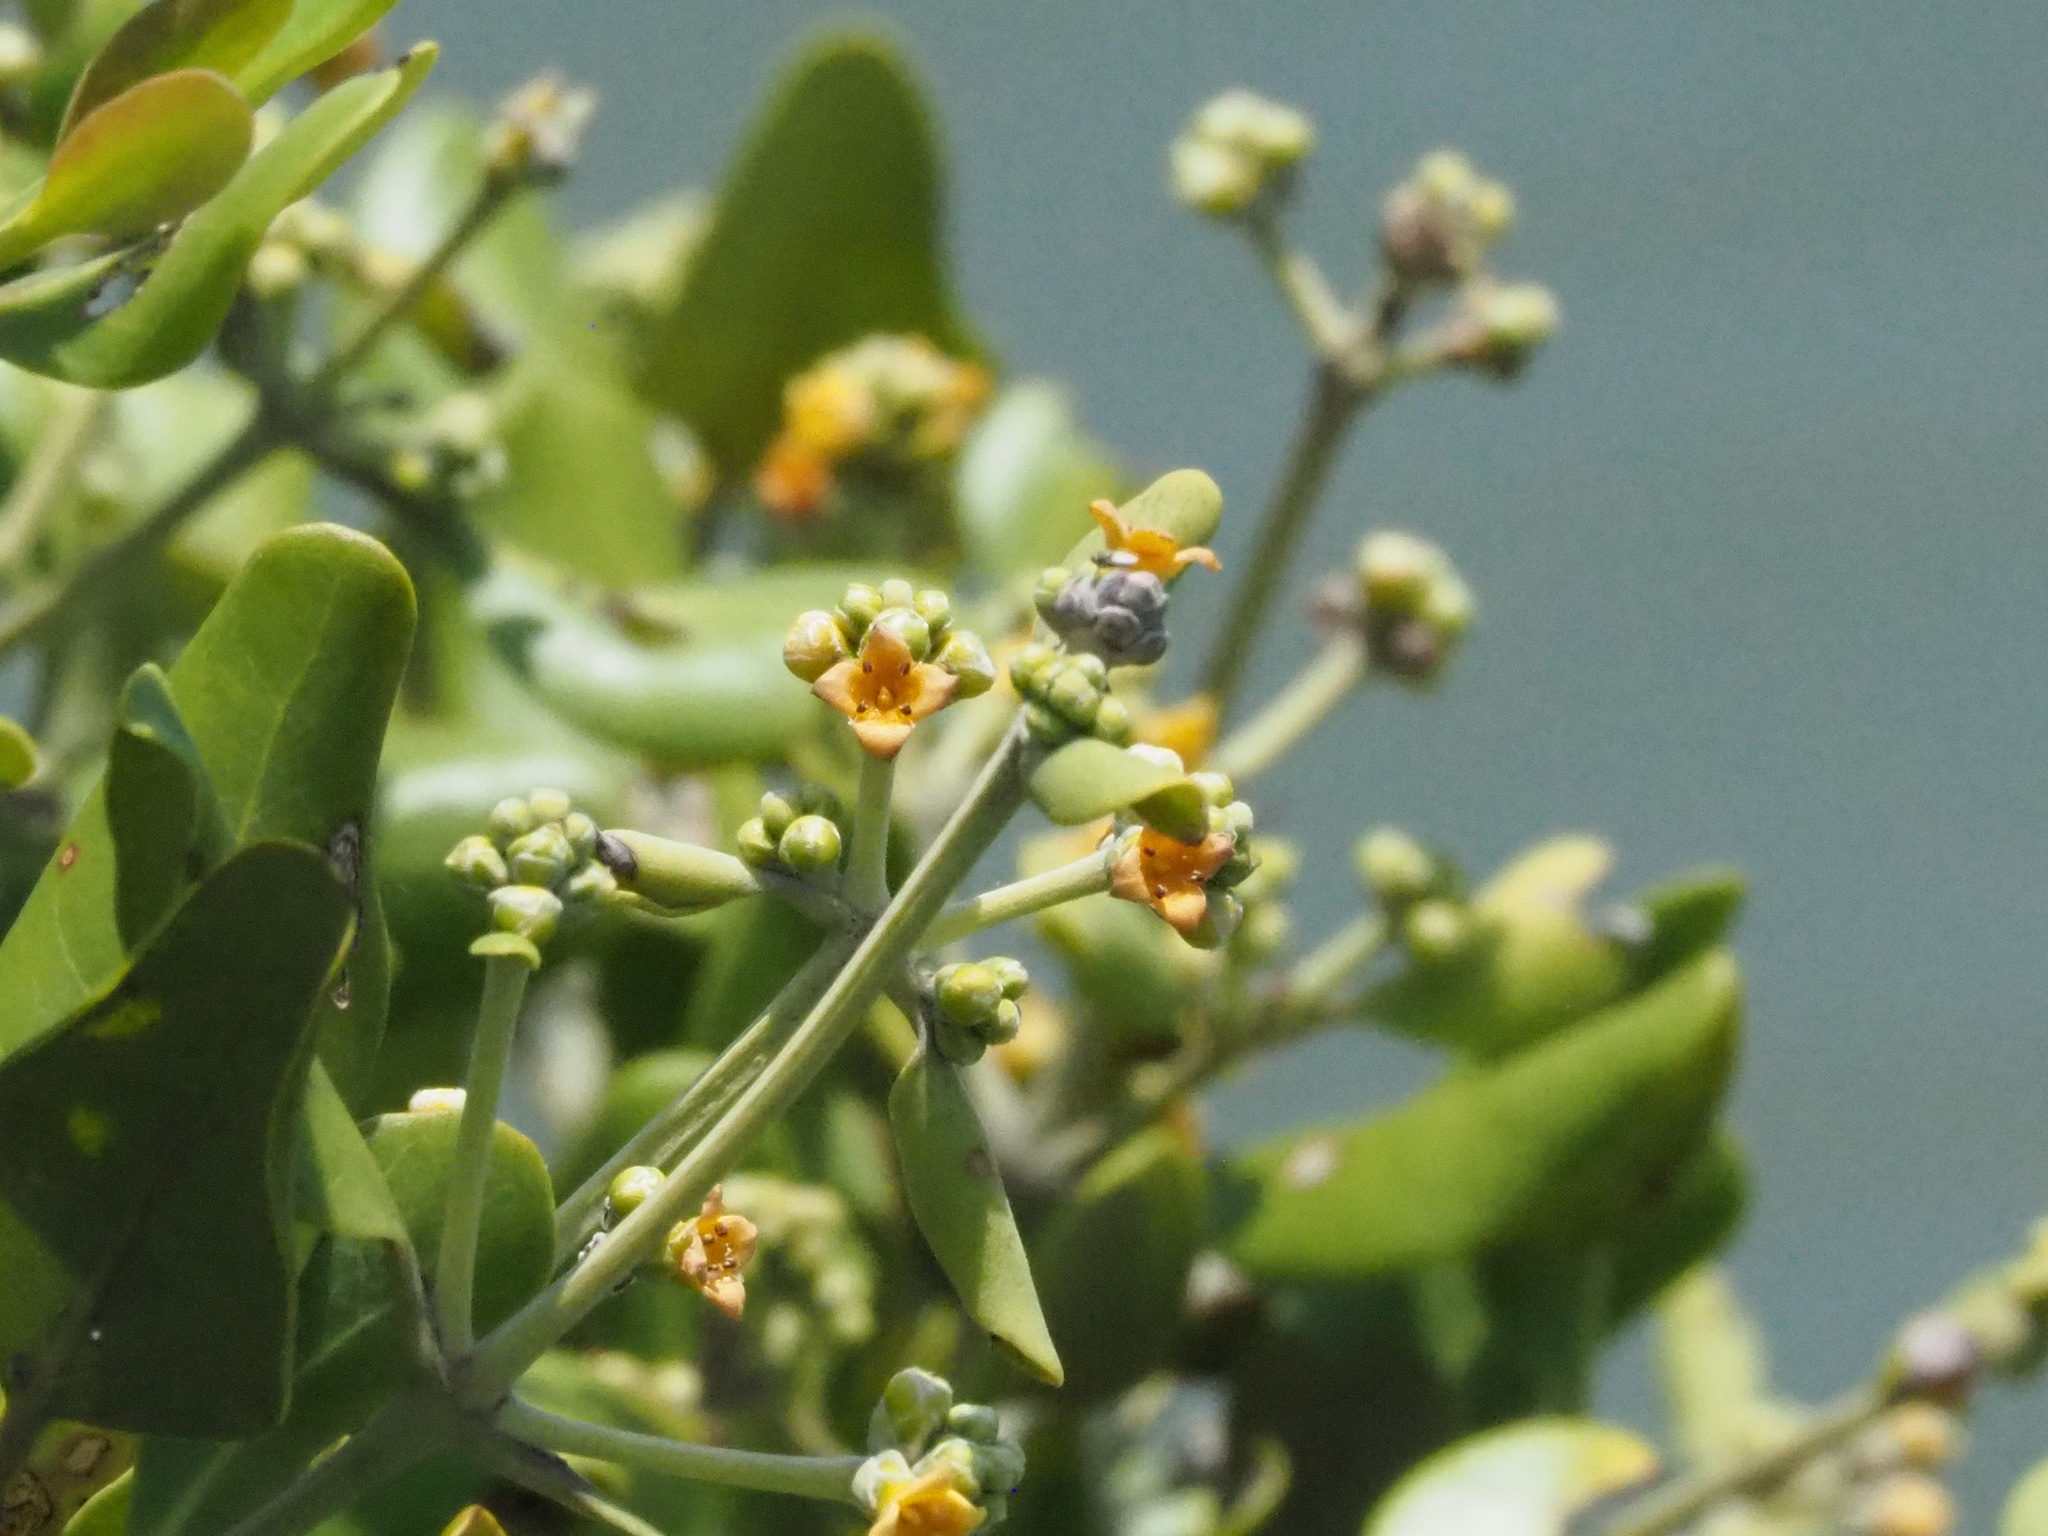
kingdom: Plantae
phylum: Tracheophyta
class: Magnoliopsida
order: Lamiales
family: Acanthaceae
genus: Avicennia
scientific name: Avicennia marina
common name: Gray mangrove
